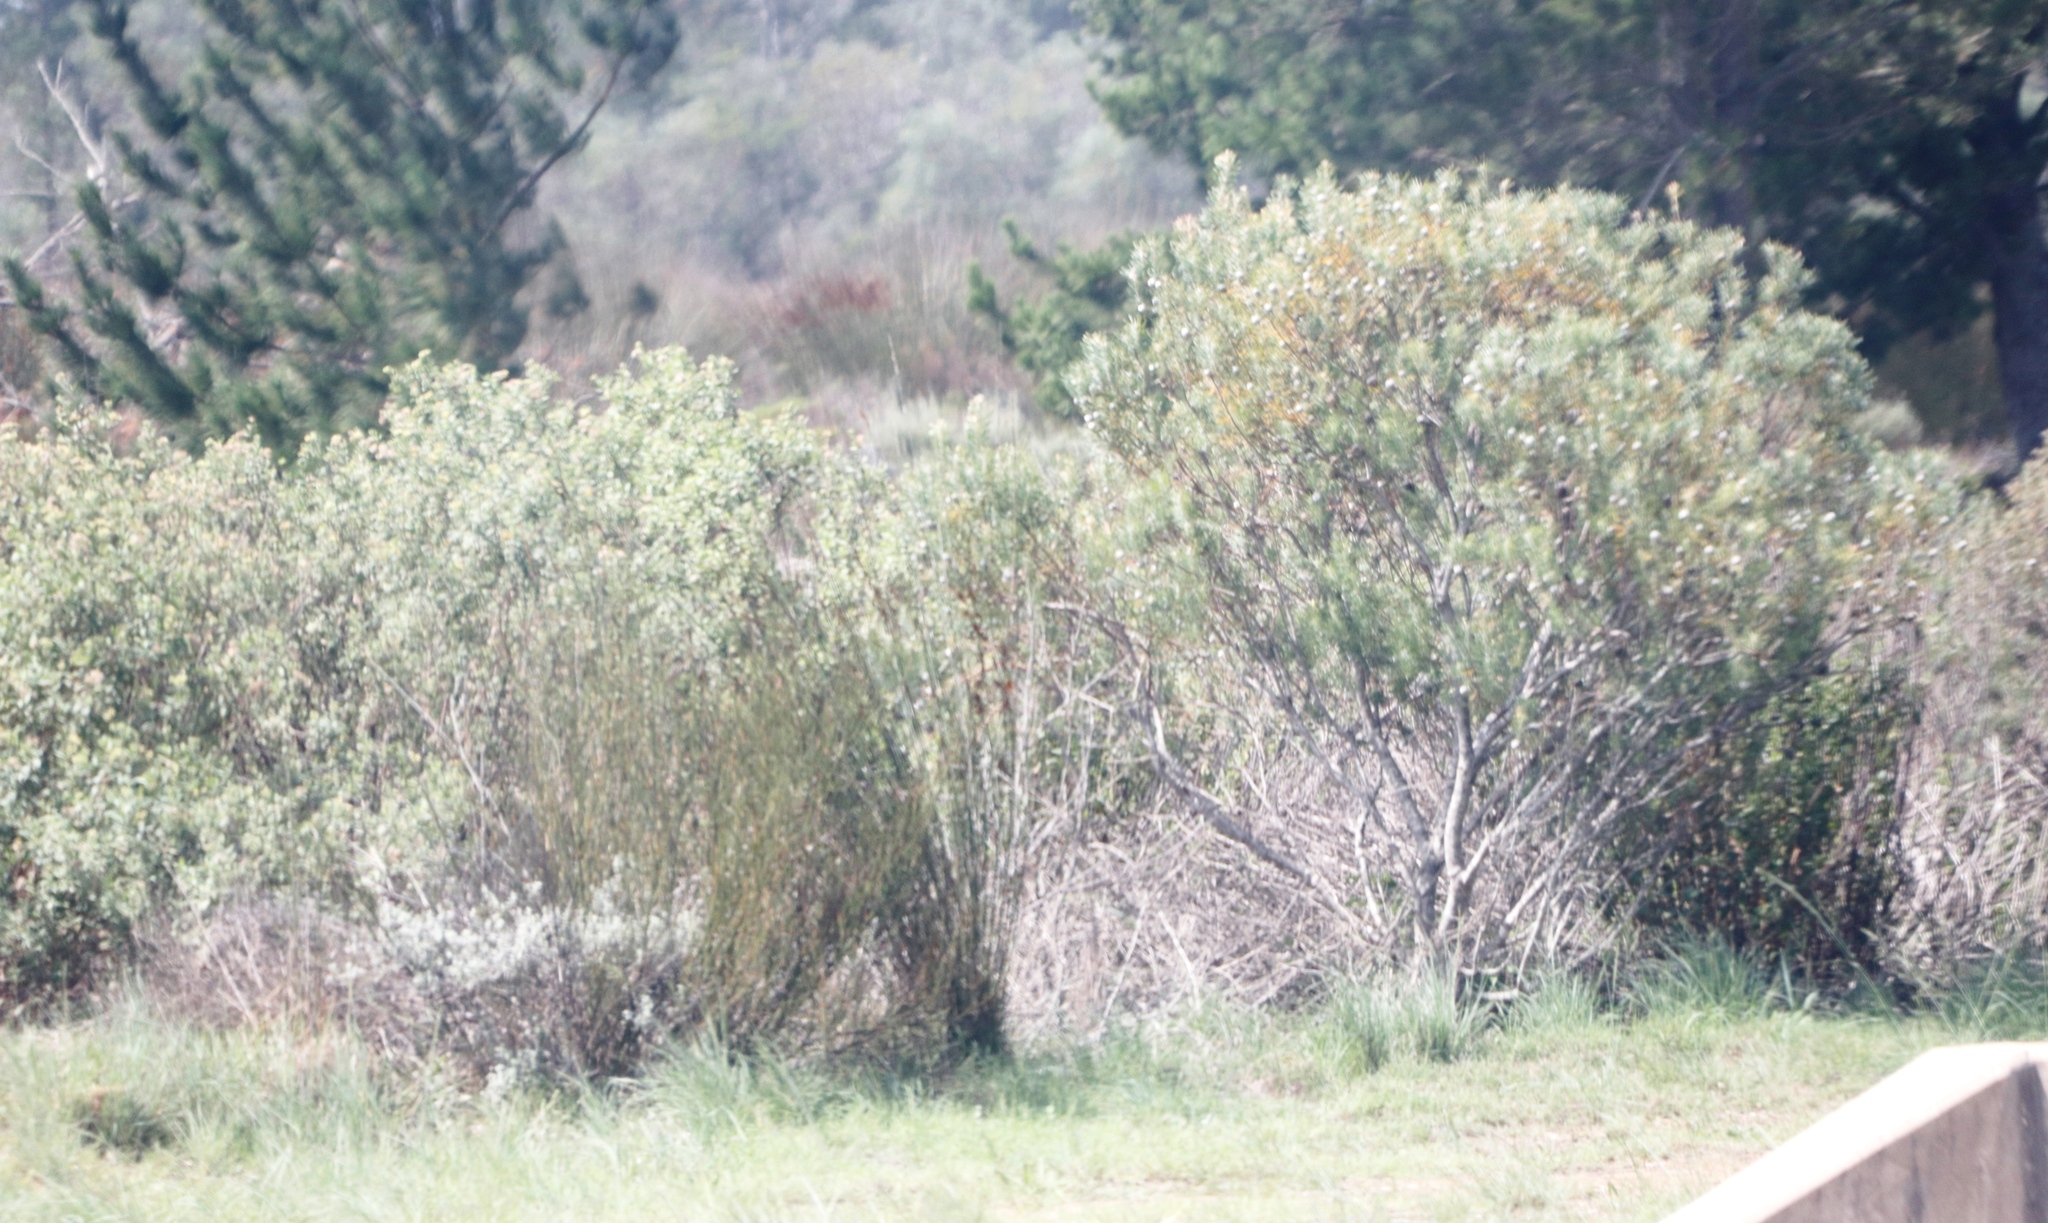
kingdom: Plantae
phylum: Tracheophyta
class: Magnoliopsida
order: Proteales
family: Proteaceae
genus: Leucadendron
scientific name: Leucadendron galpinii
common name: Hairless conebush
